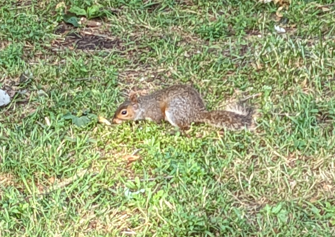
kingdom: Animalia
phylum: Chordata
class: Mammalia
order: Rodentia
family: Sciuridae
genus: Sciurus
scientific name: Sciurus carolinensis
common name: Eastern gray squirrel
